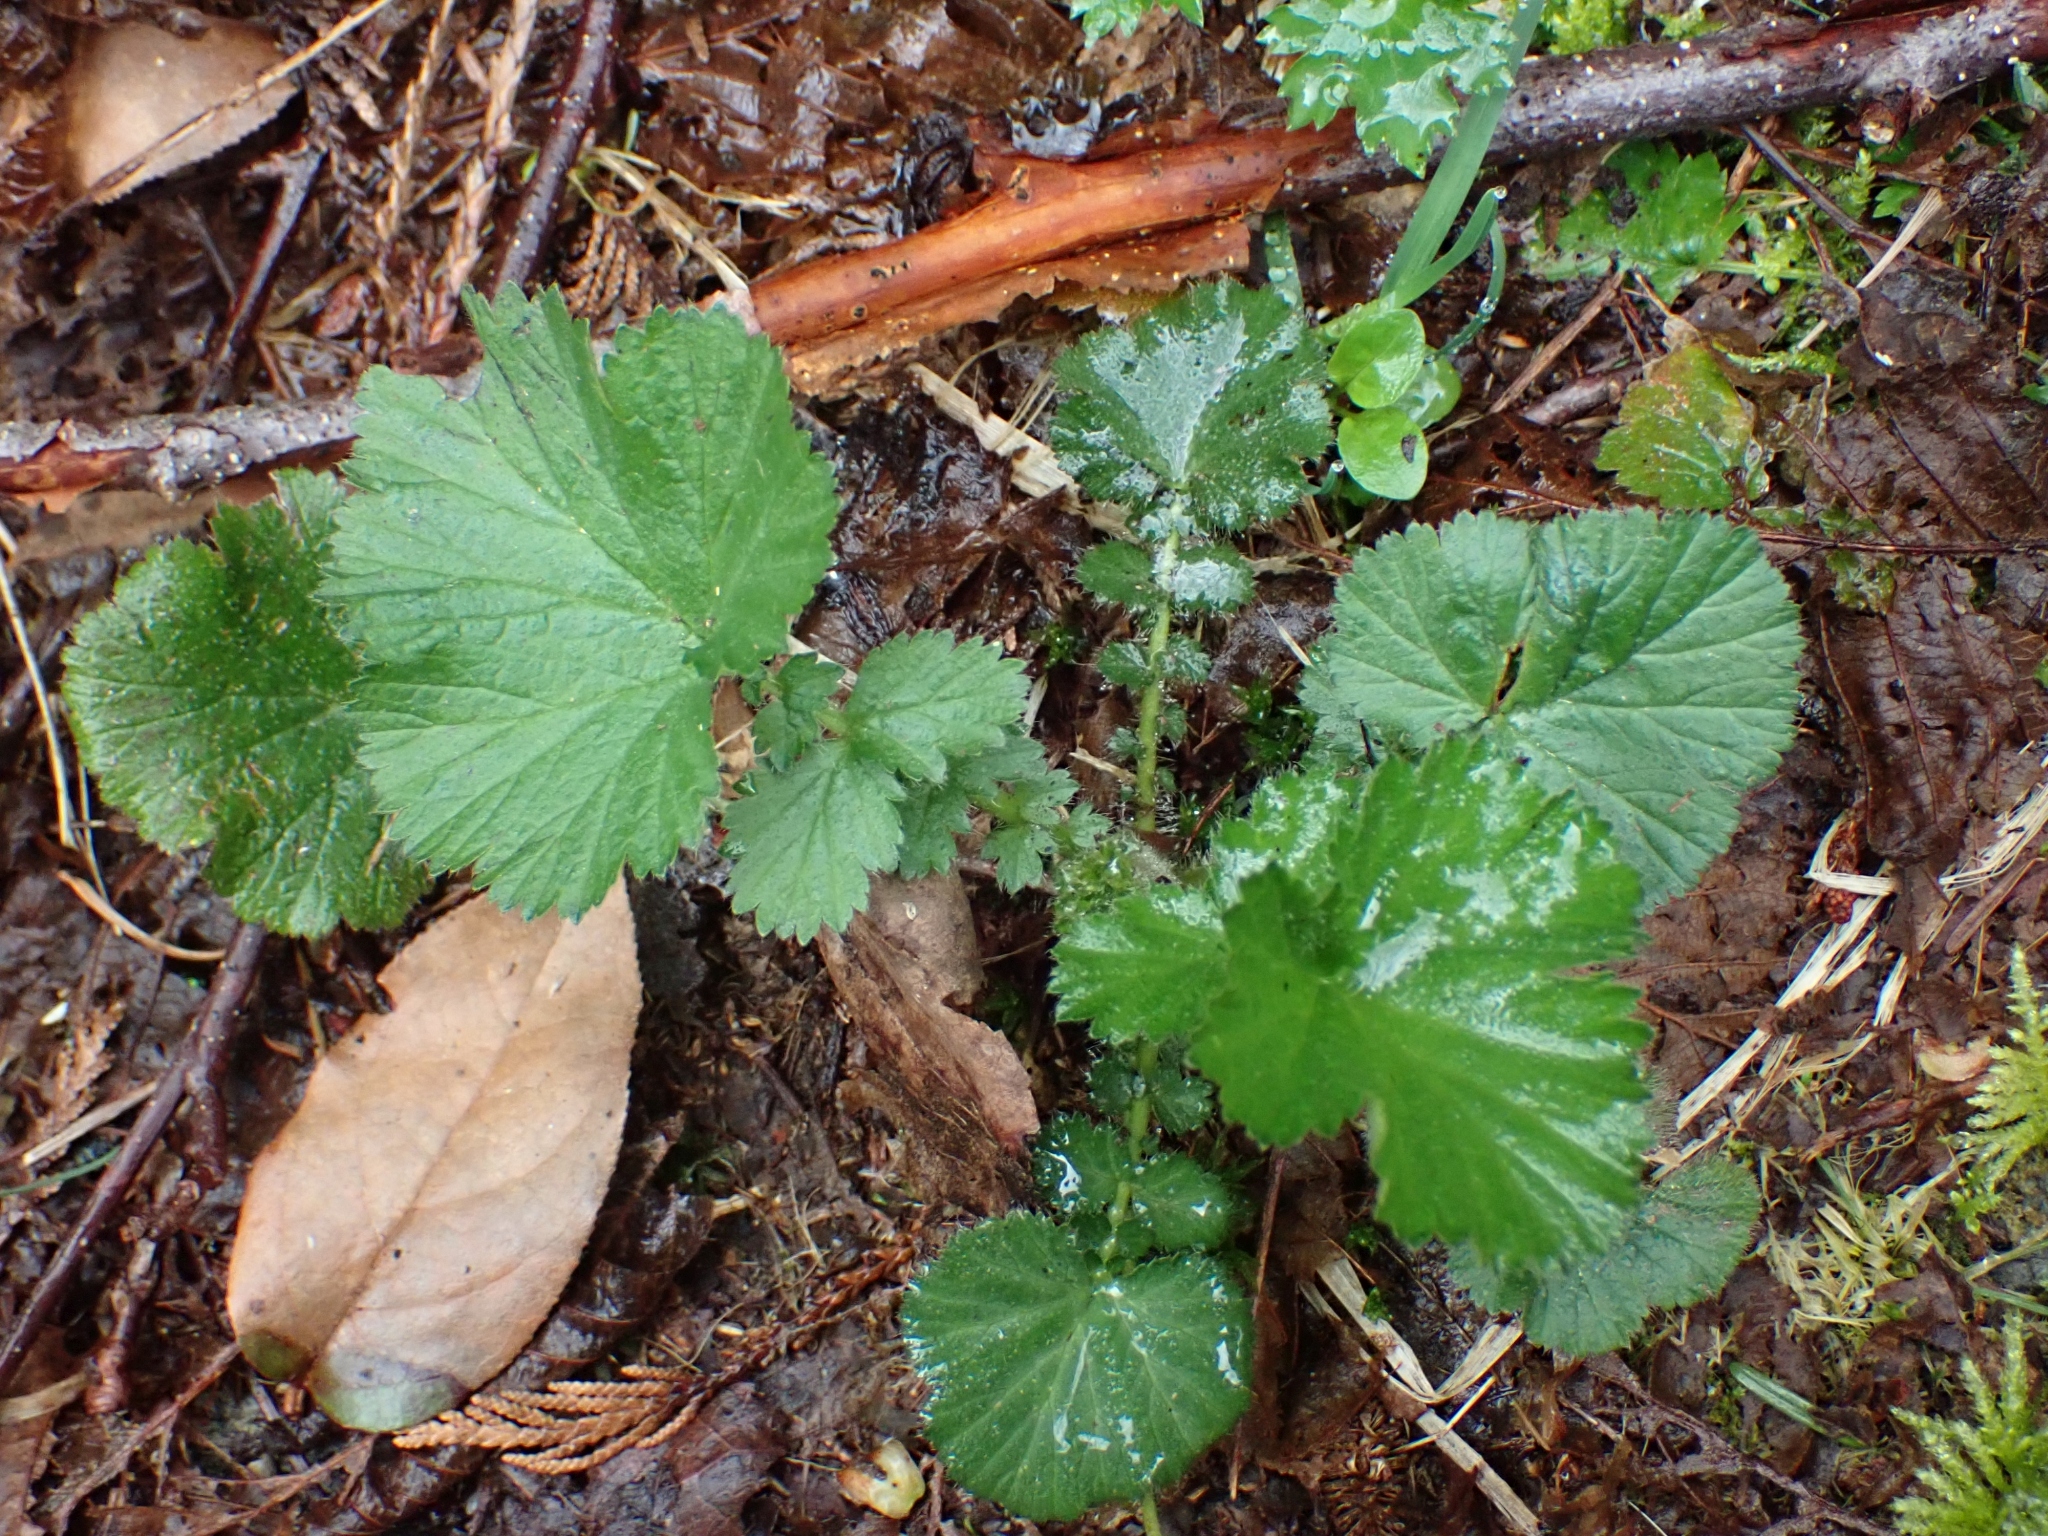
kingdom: Plantae
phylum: Tracheophyta
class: Magnoliopsida
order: Rosales
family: Rosaceae
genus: Geum
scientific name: Geum macrophyllum
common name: Large-leaved avens
